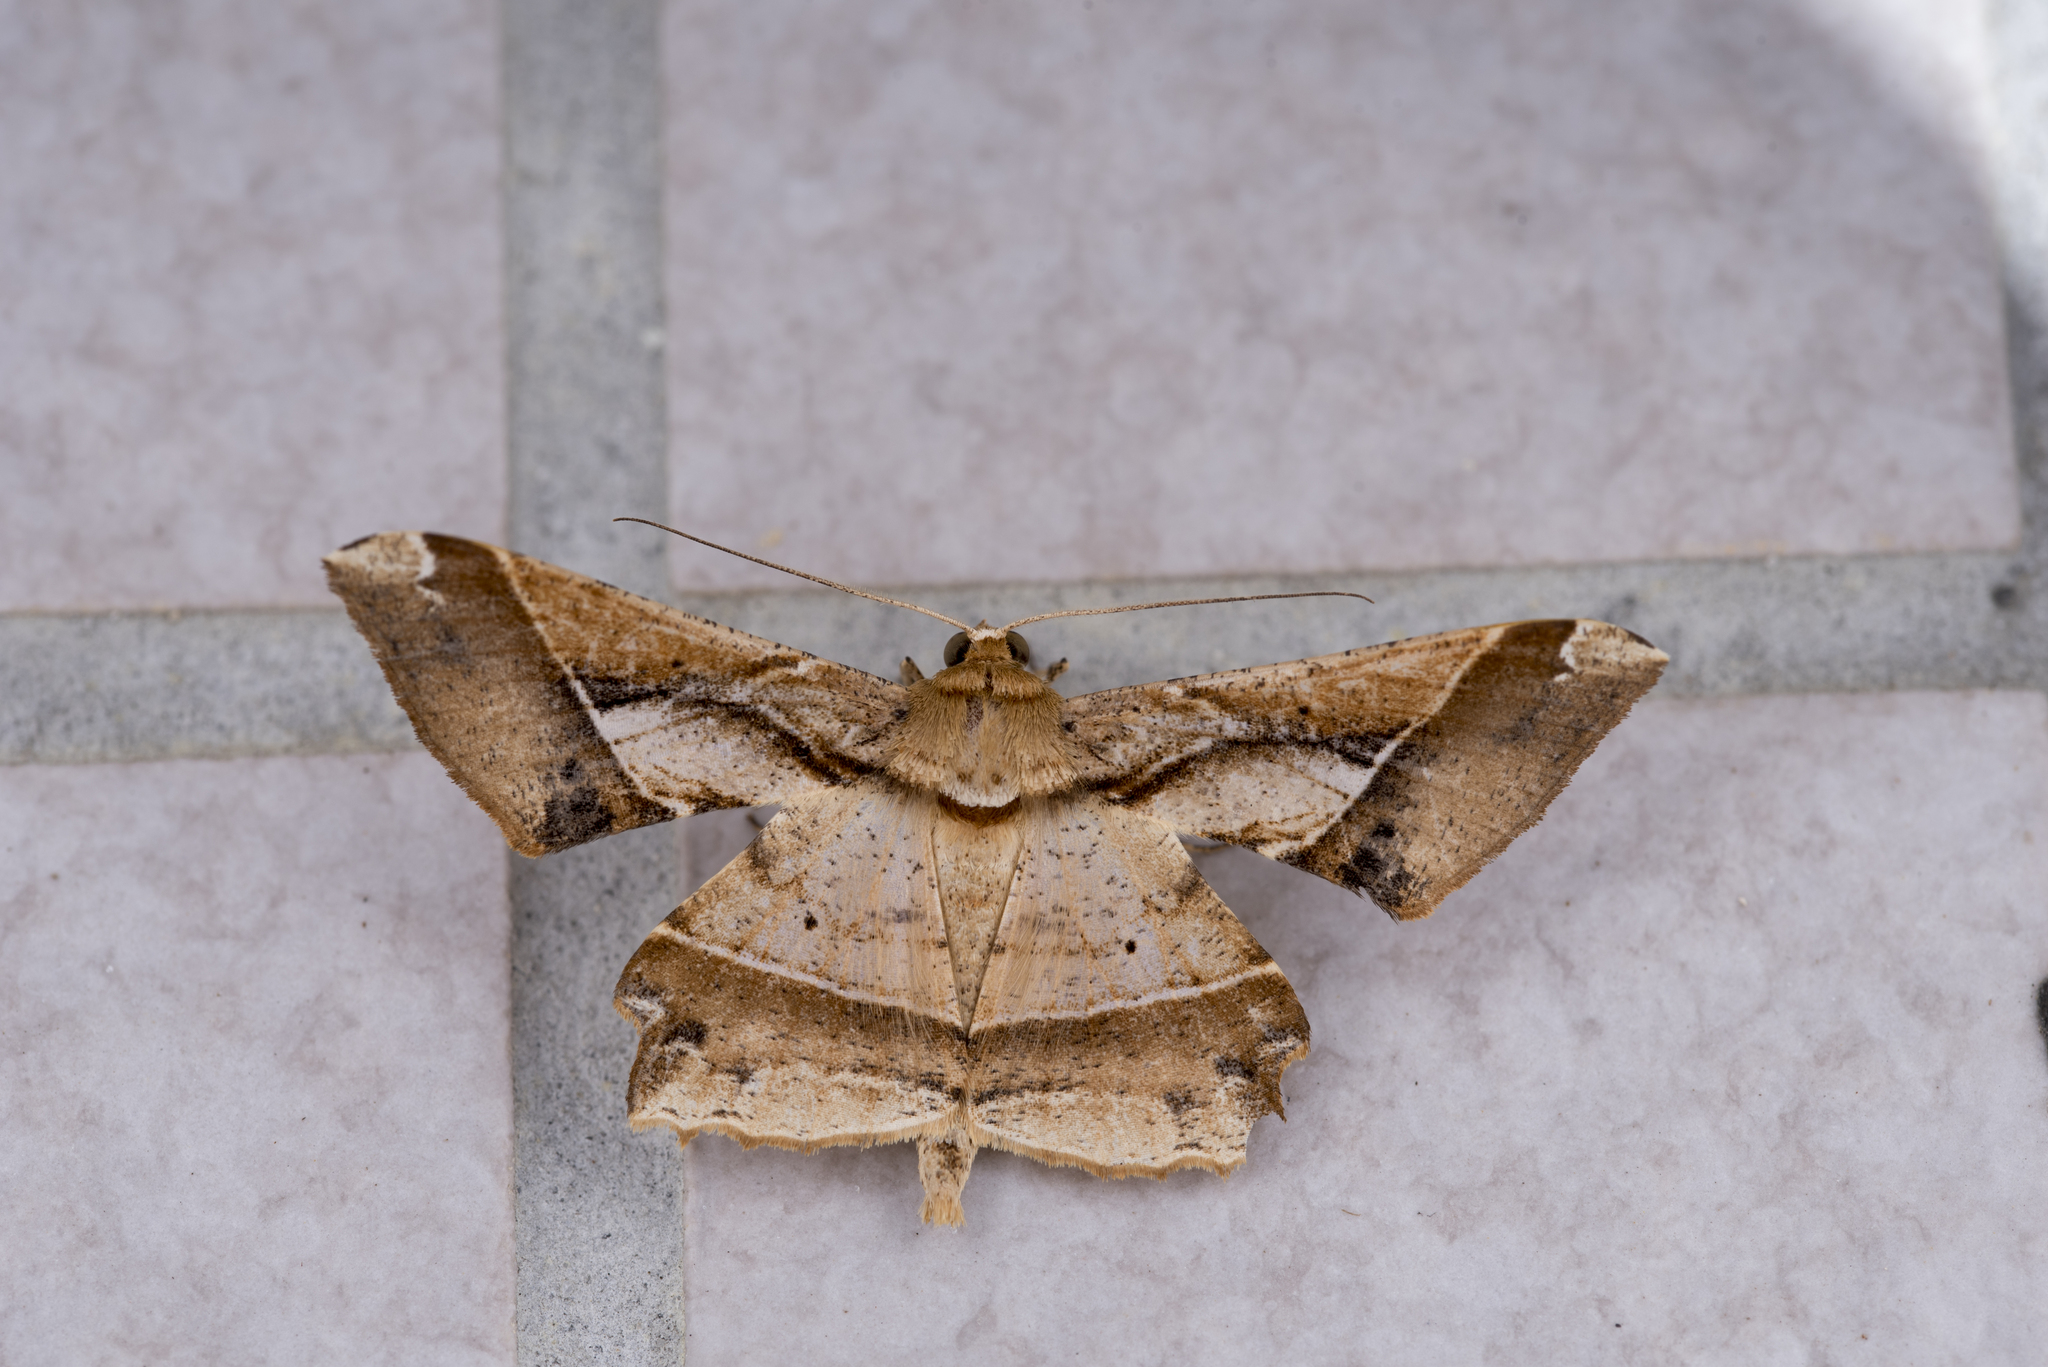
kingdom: Animalia
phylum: Arthropoda
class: Insecta
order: Lepidoptera
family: Geometridae
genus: Krananda
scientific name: Krananda latimarginaria
